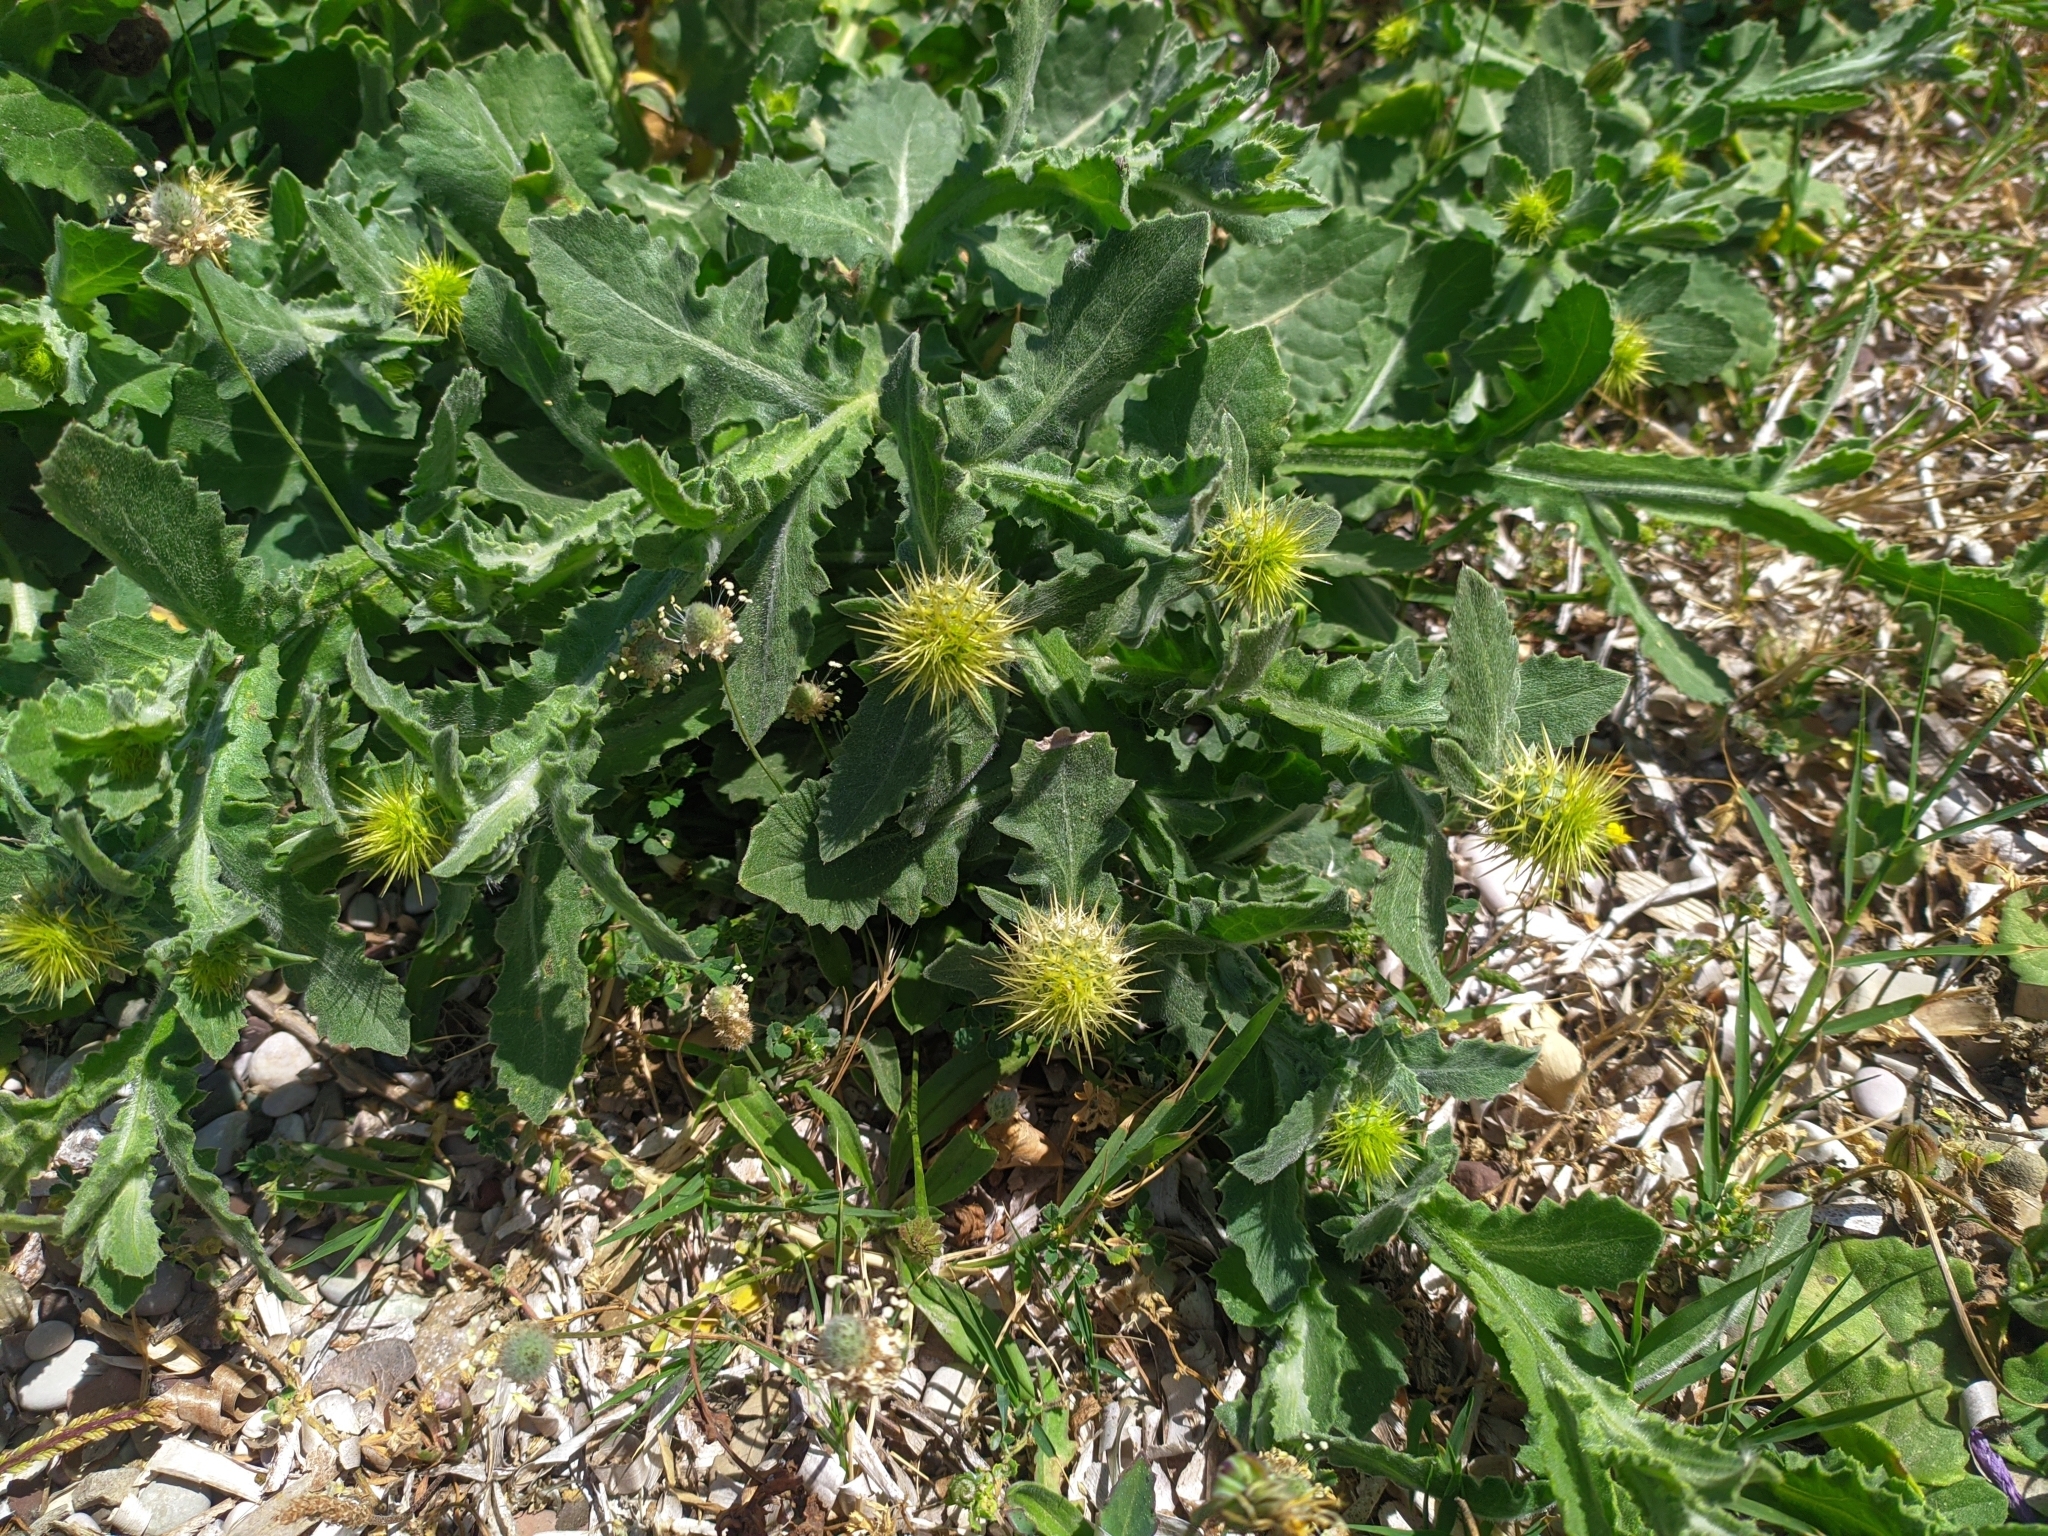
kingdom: Plantae
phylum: Tracheophyta
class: Magnoliopsida
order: Asterales
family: Asteraceae
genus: Centaurea
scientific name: Centaurea seridis
